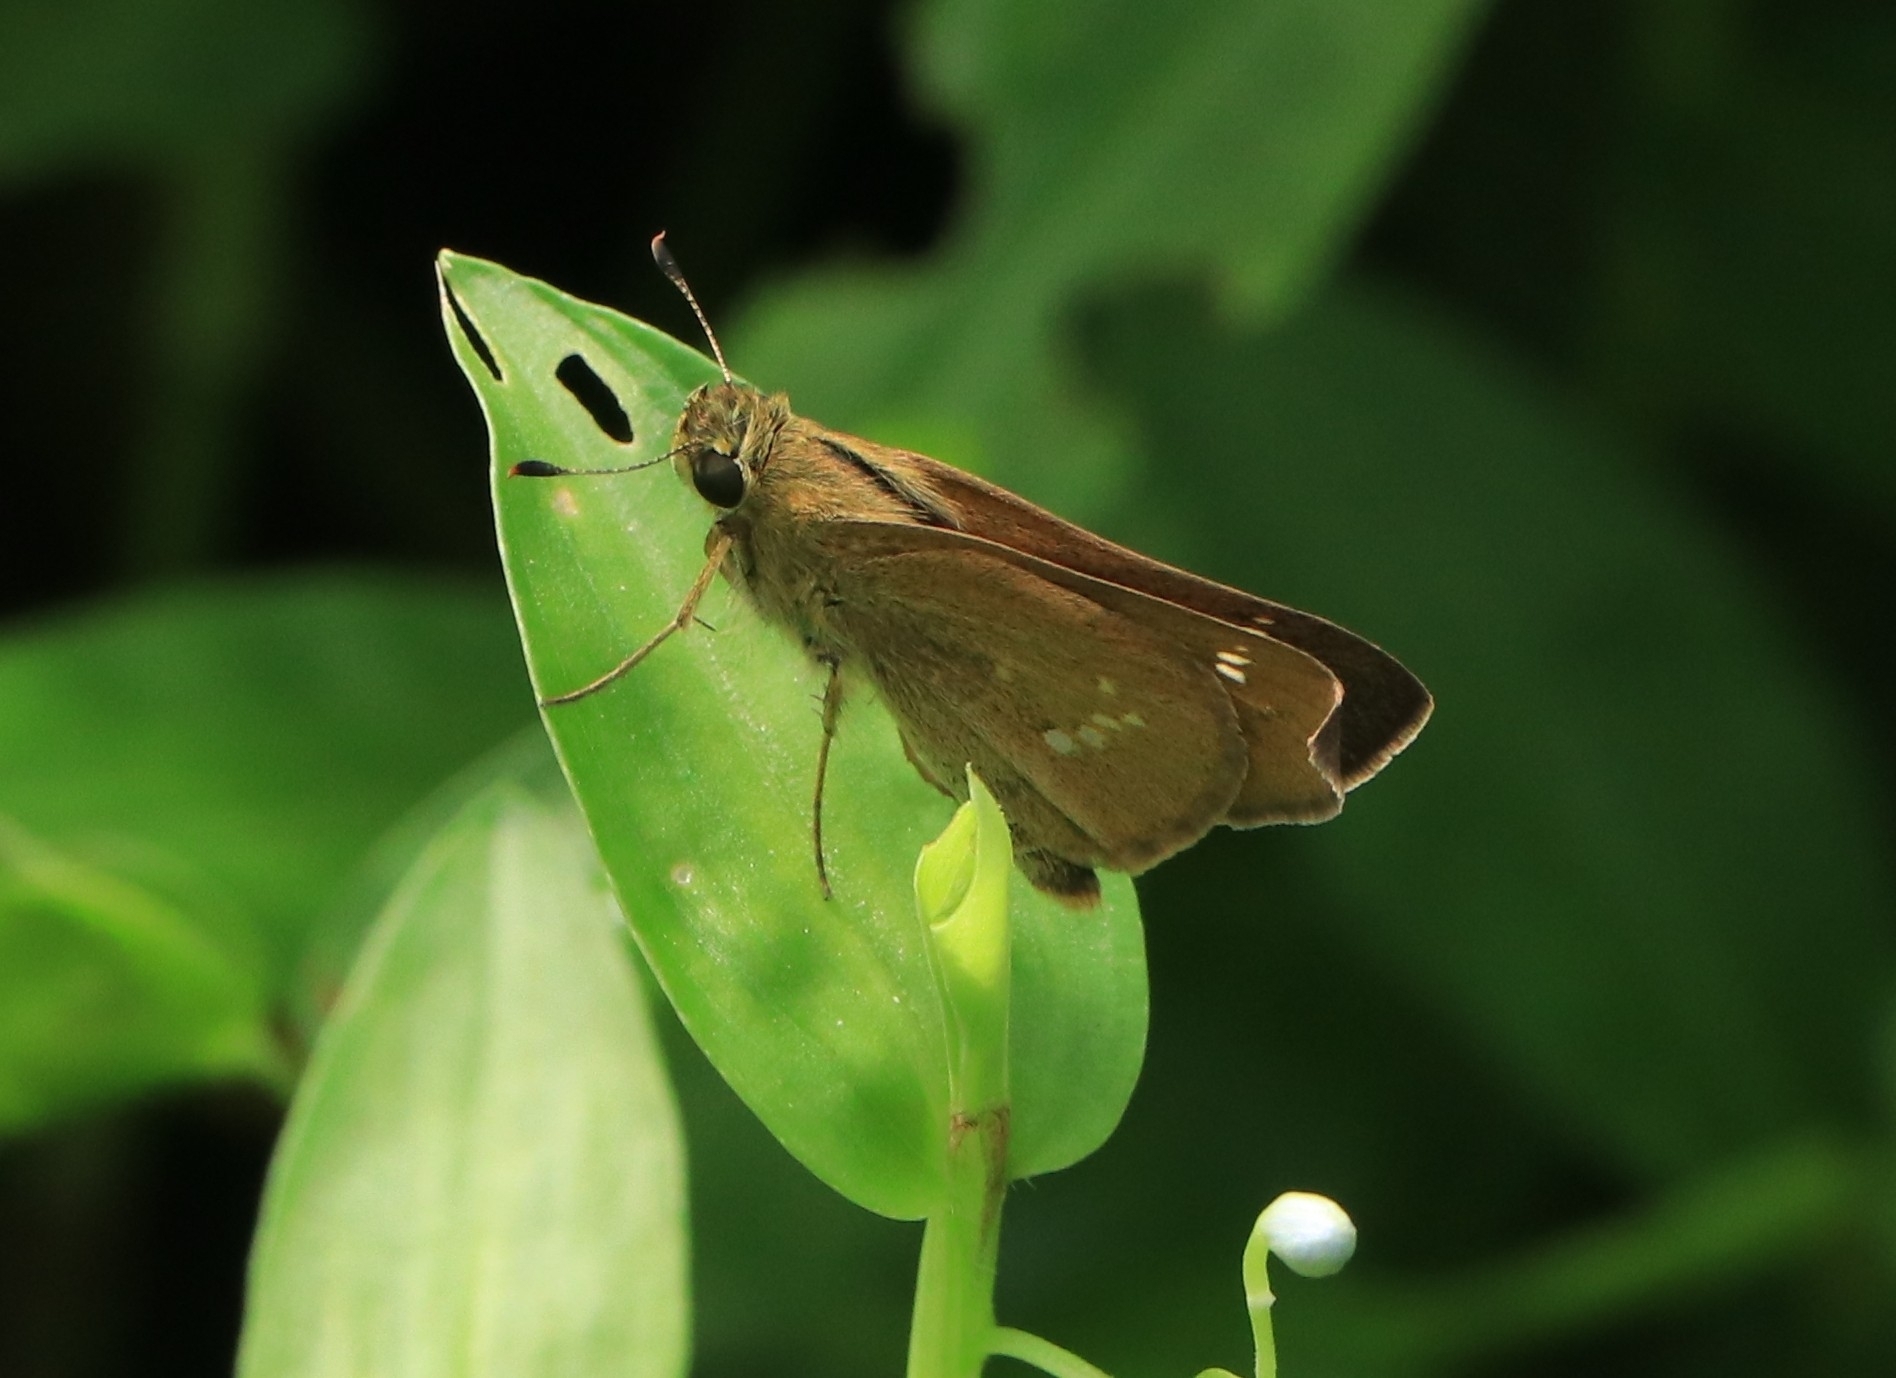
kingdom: Animalia
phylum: Arthropoda
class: Insecta
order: Lepidoptera
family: Hesperiidae
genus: Parnara
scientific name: Parnara naso
